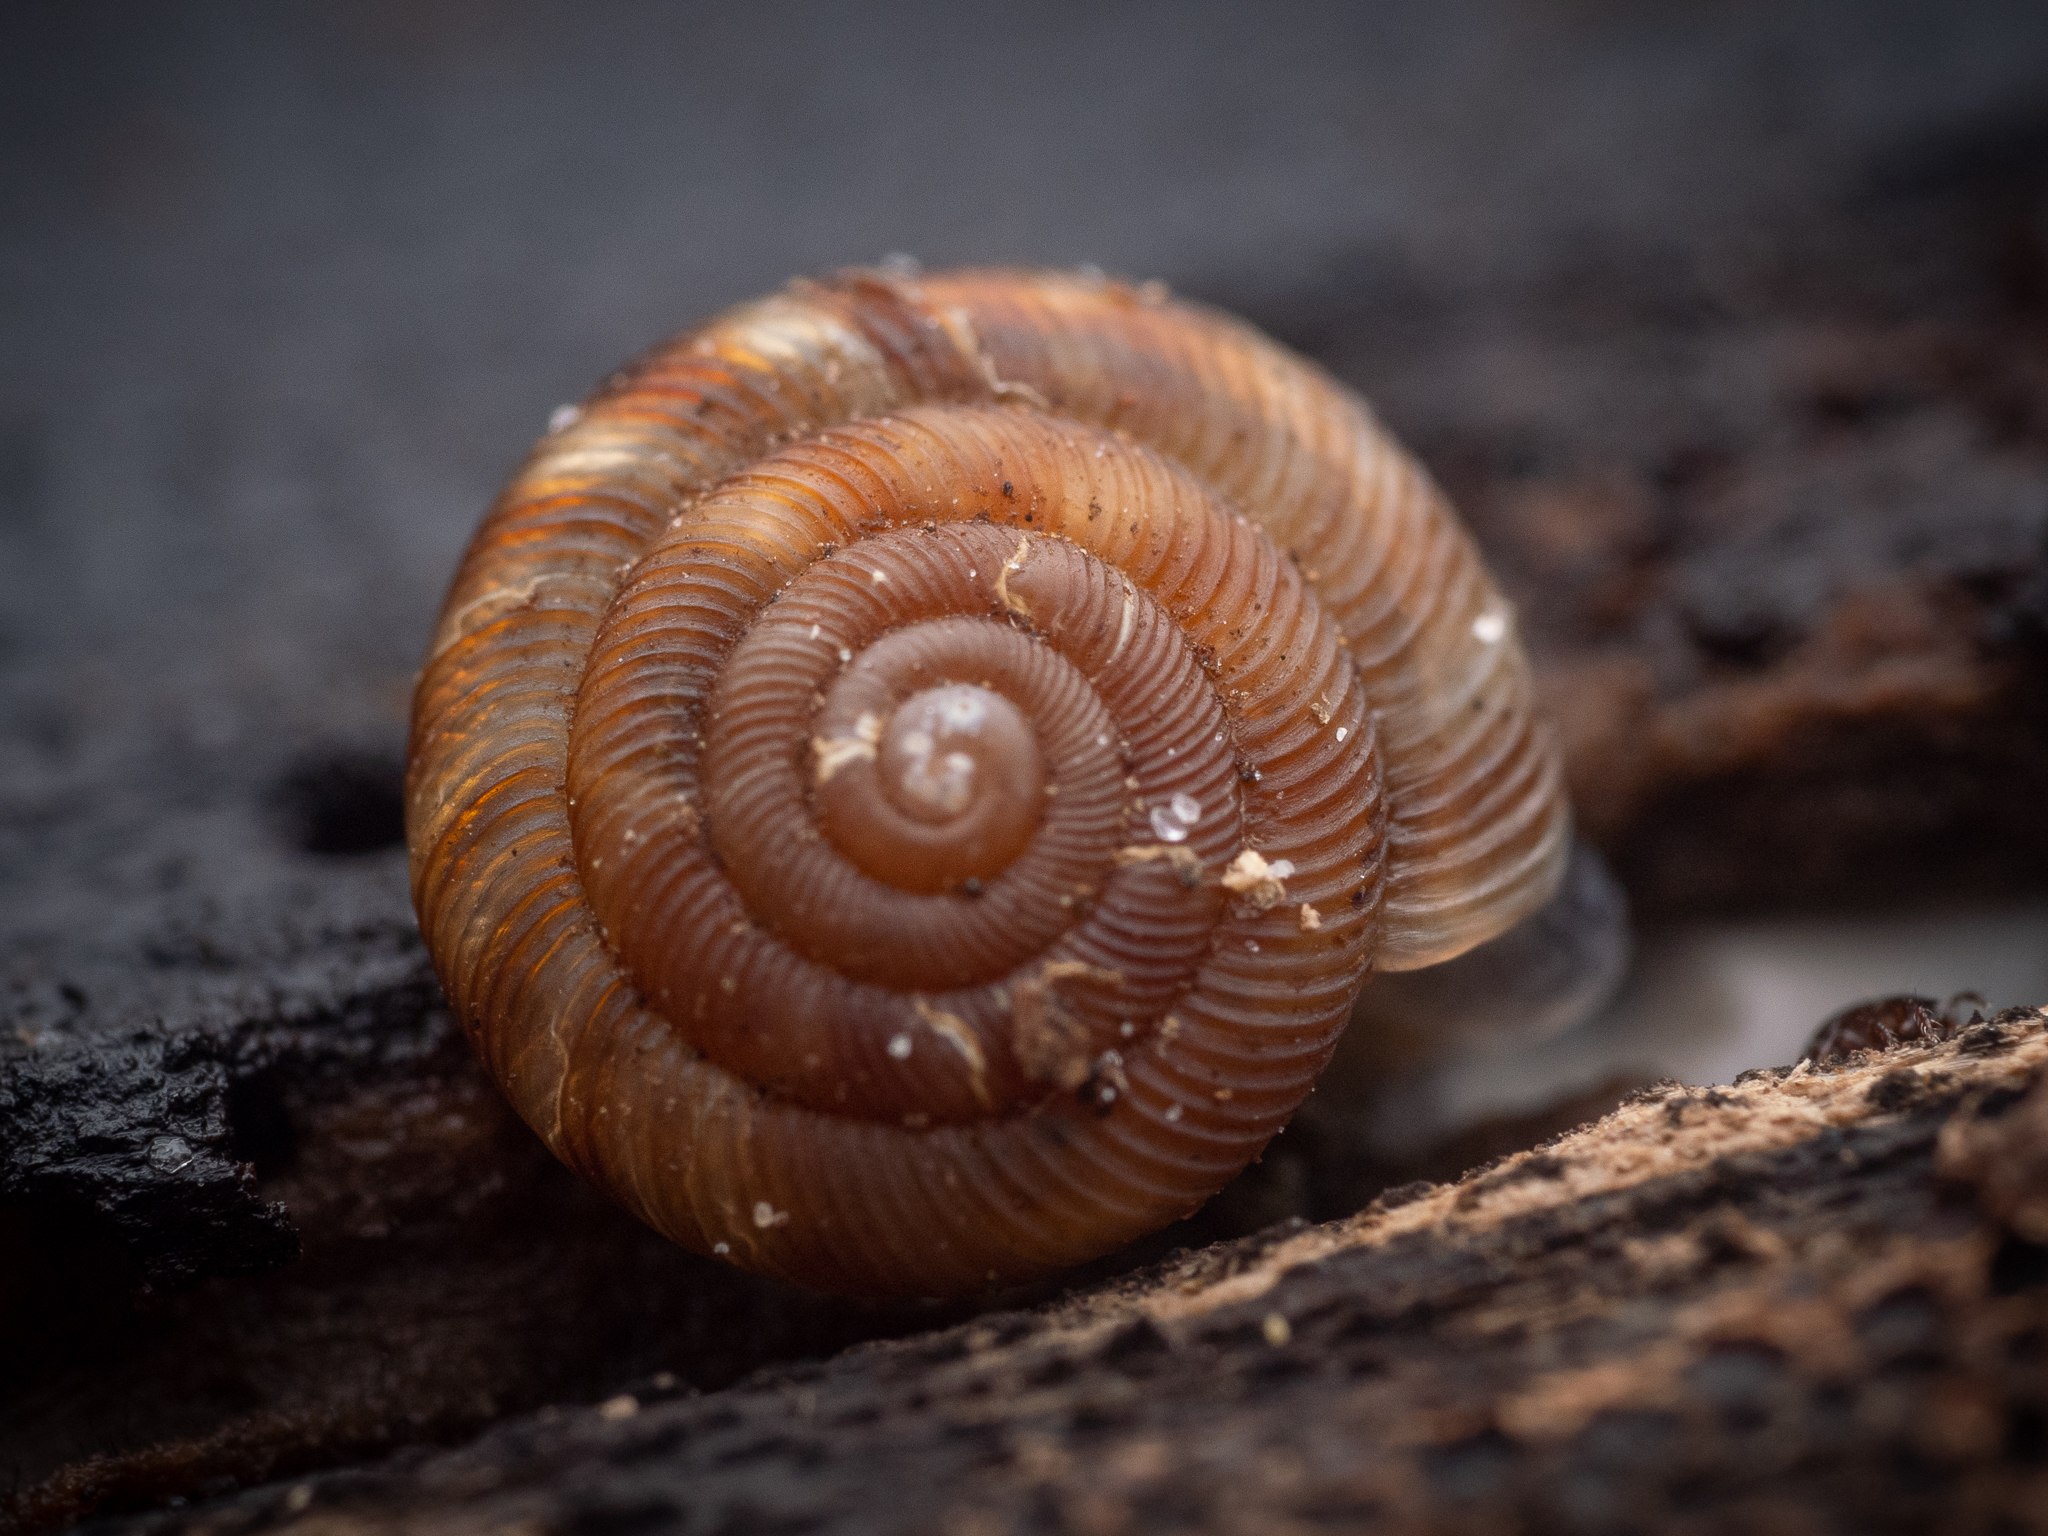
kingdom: Animalia
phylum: Mollusca
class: Gastropoda
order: Stylommatophora
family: Discidae
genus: Discus
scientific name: Discus rotundatus
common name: Rounded snail
